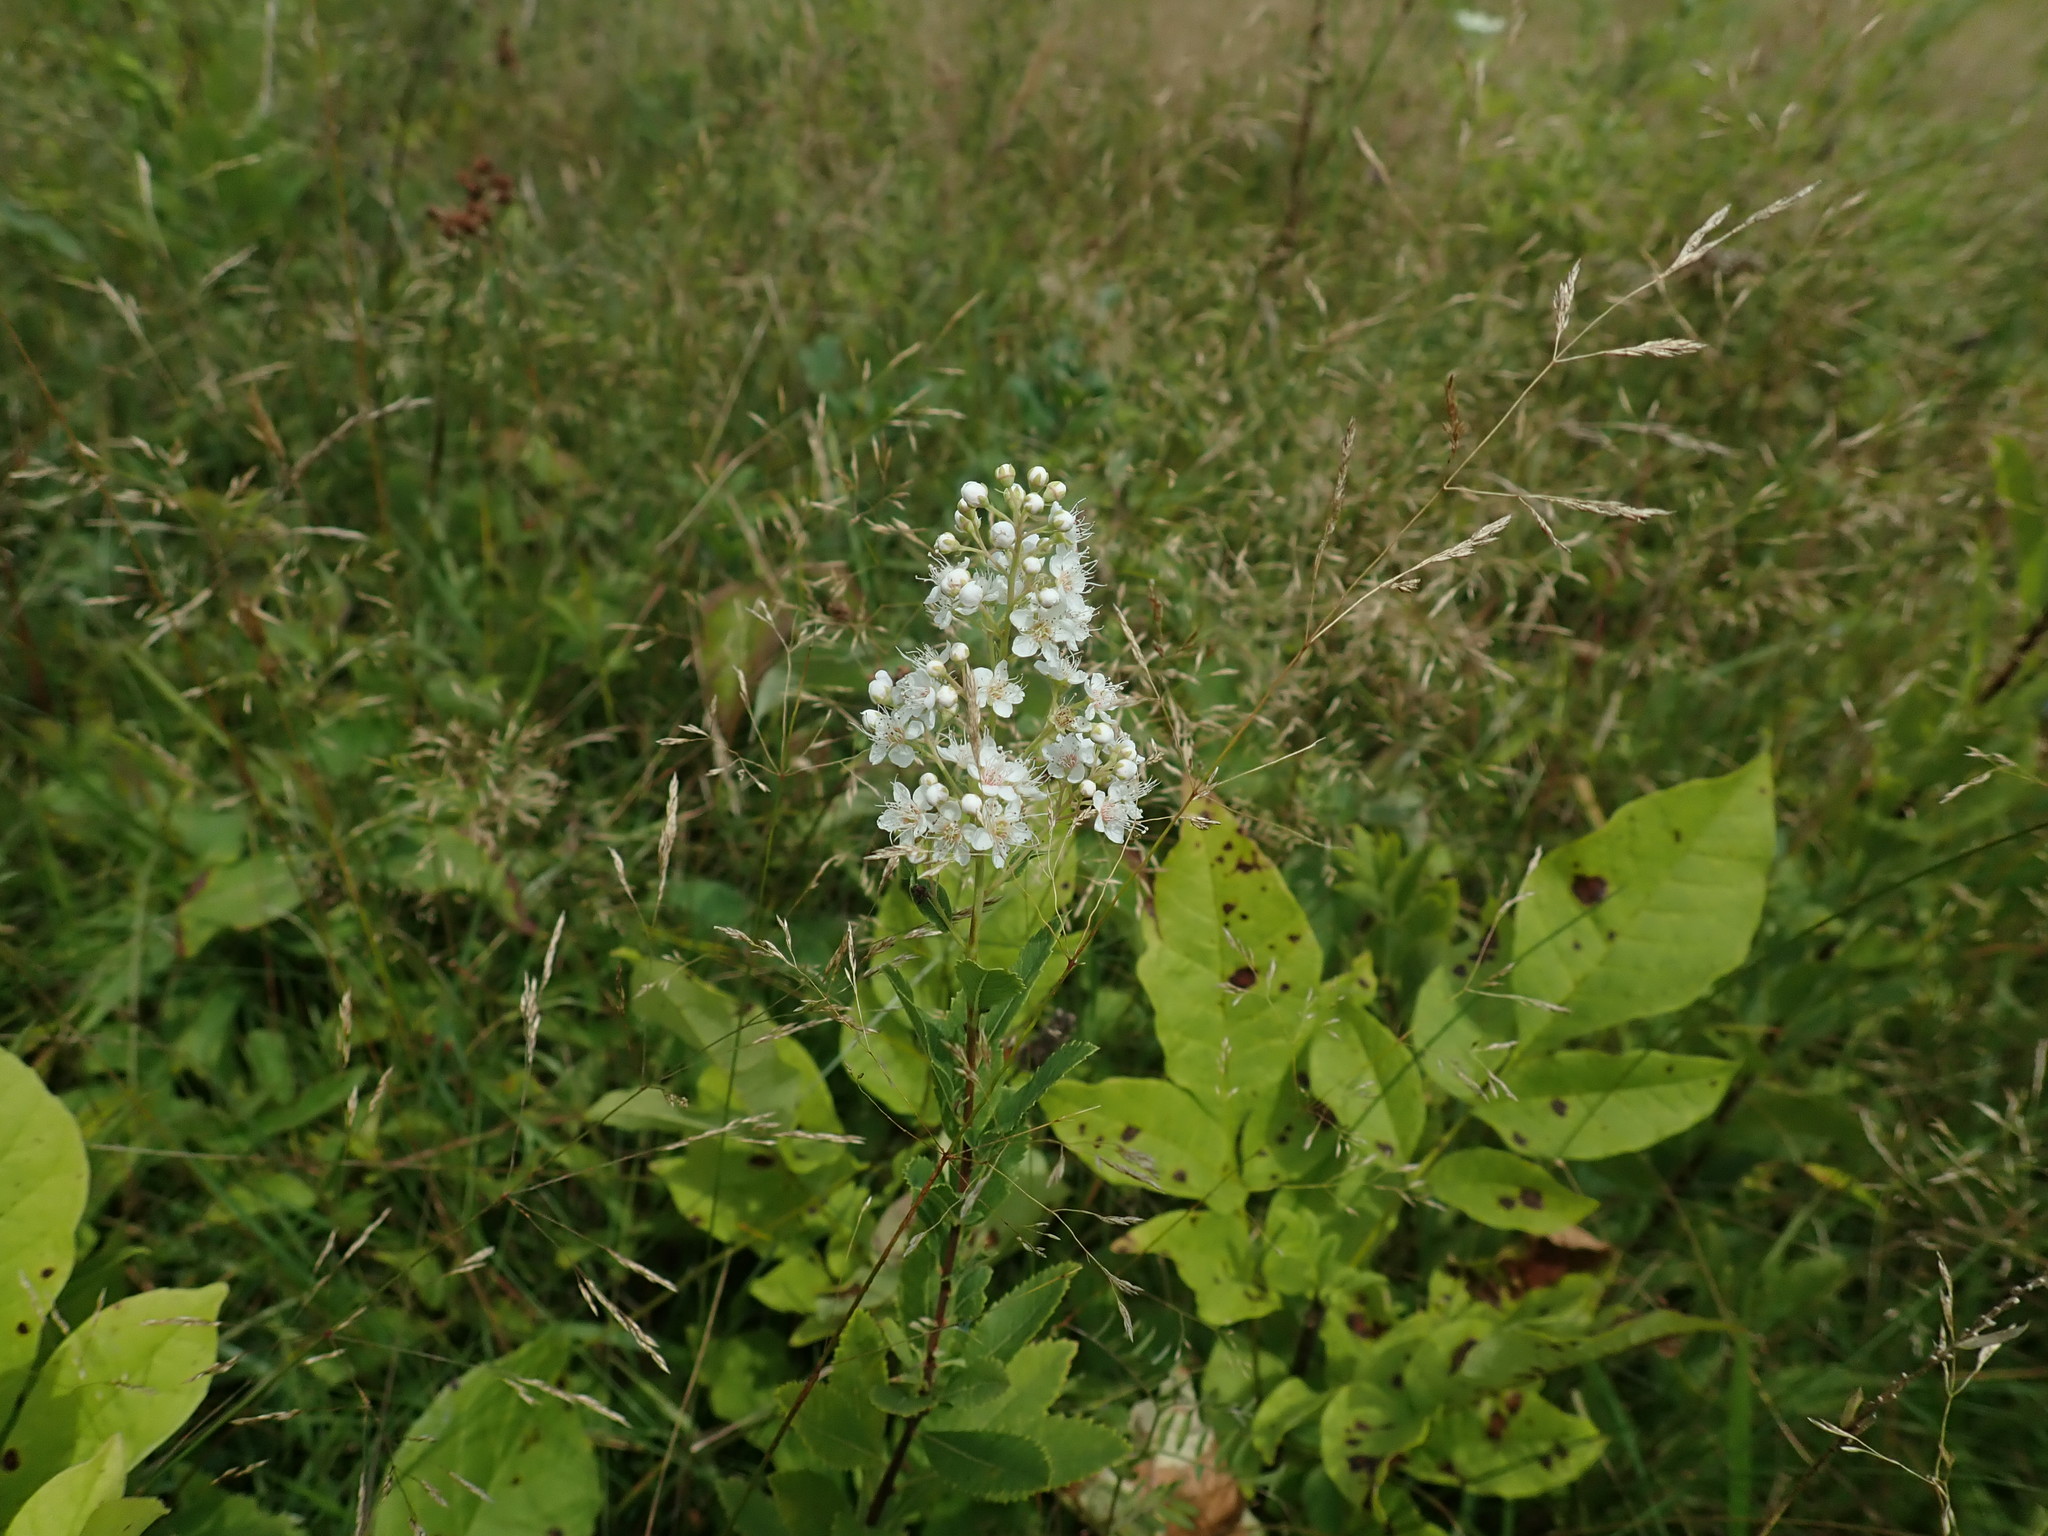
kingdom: Plantae
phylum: Tracheophyta
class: Magnoliopsida
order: Rosales
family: Rosaceae
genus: Spiraea
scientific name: Spiraea alba
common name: Pale bridewort
